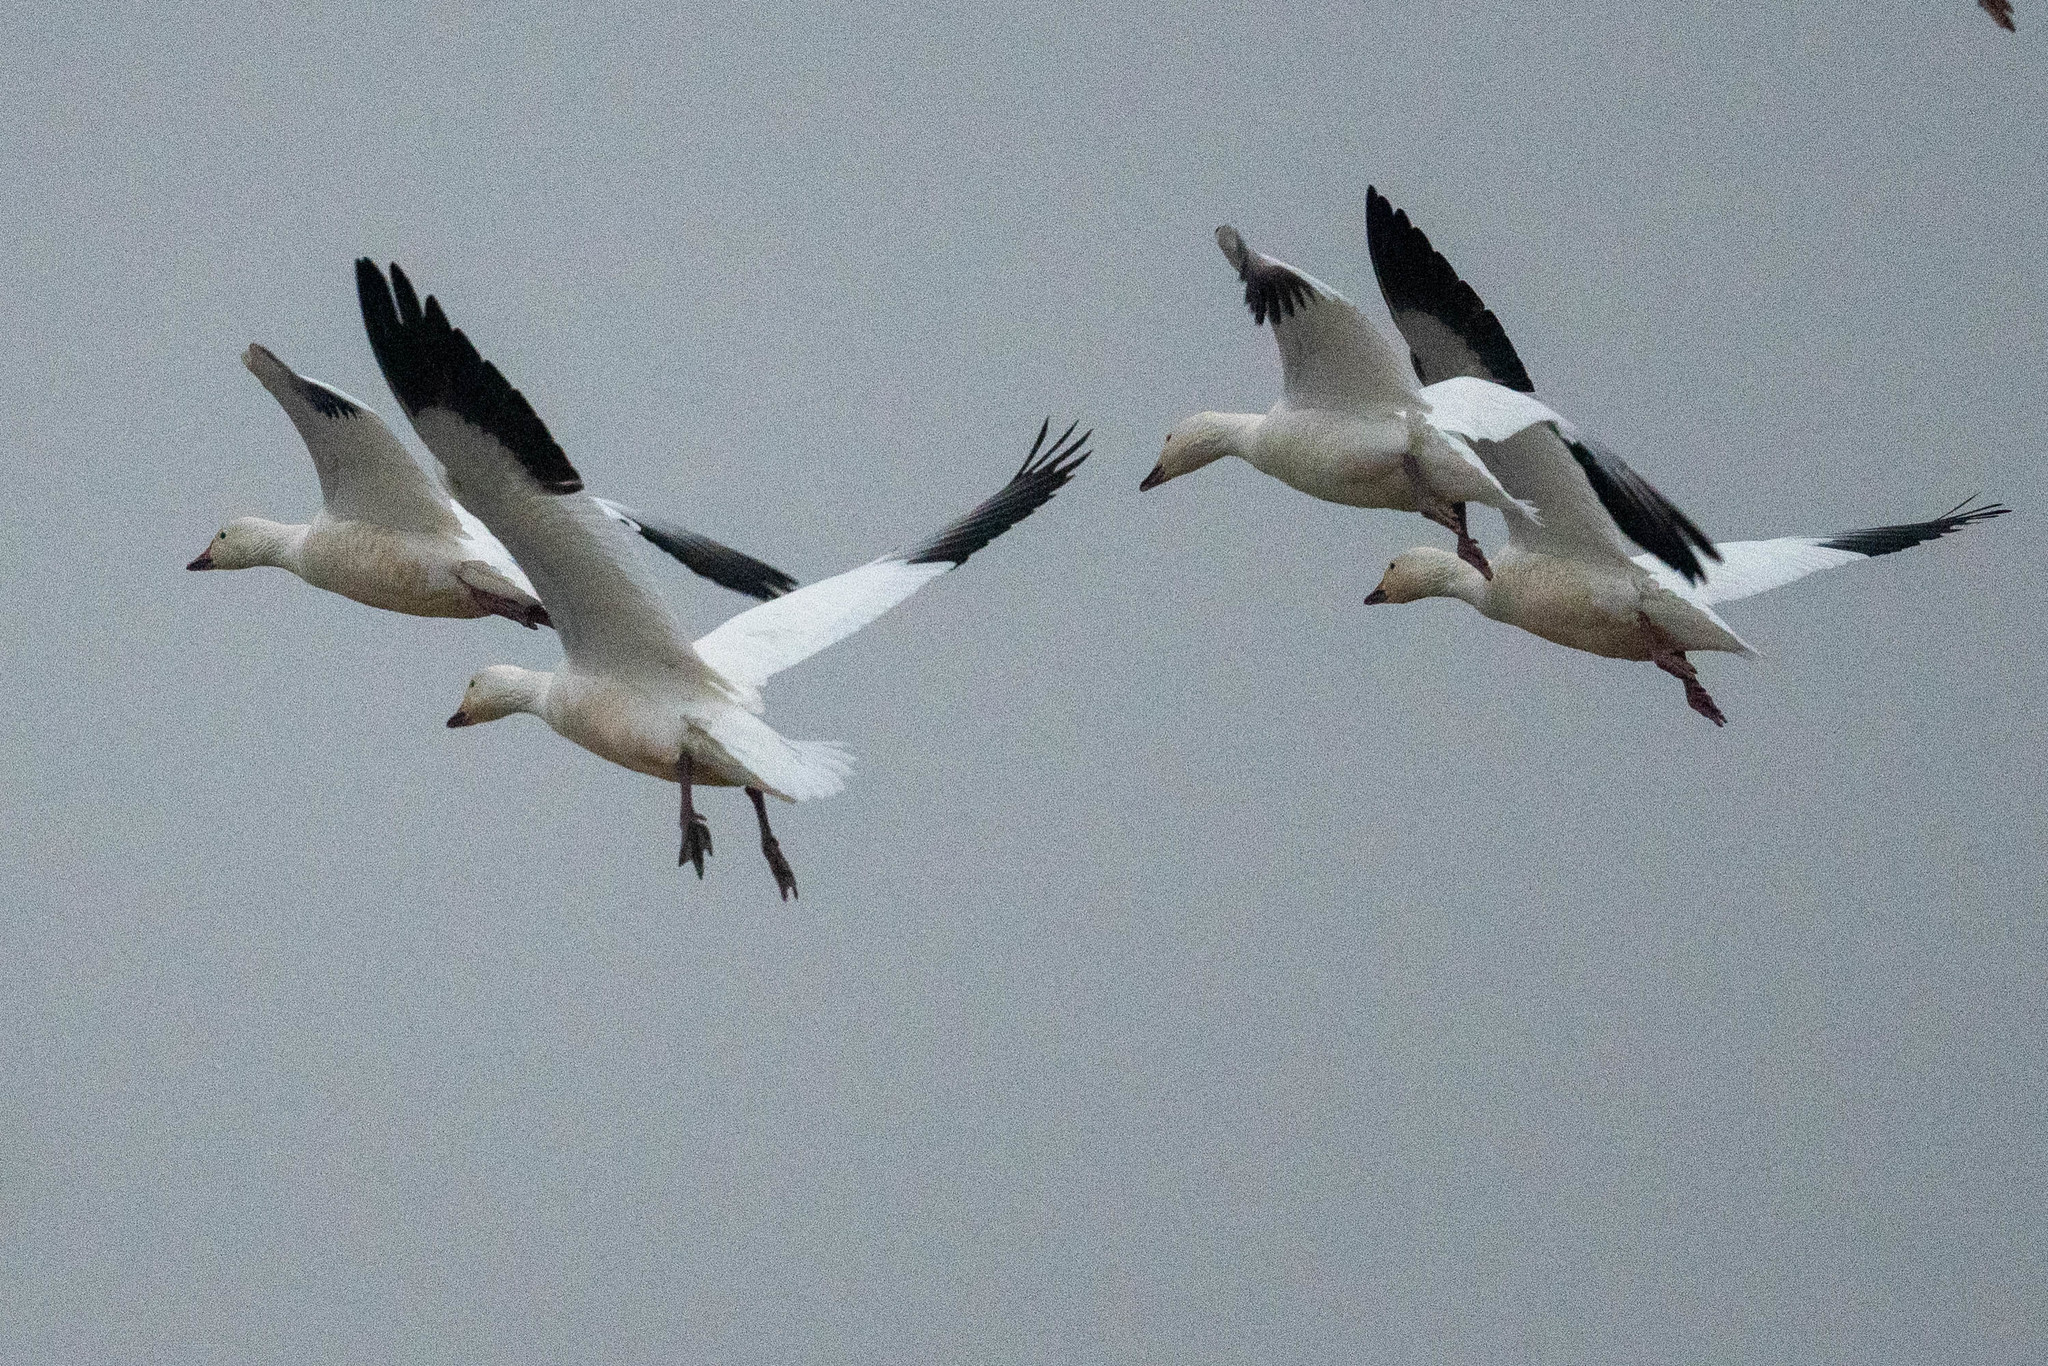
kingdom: Animalia
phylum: Chordata
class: Aves
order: Anseriformes
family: Anatidae
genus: Anser
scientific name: Anser caerulescens
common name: Snow goose
